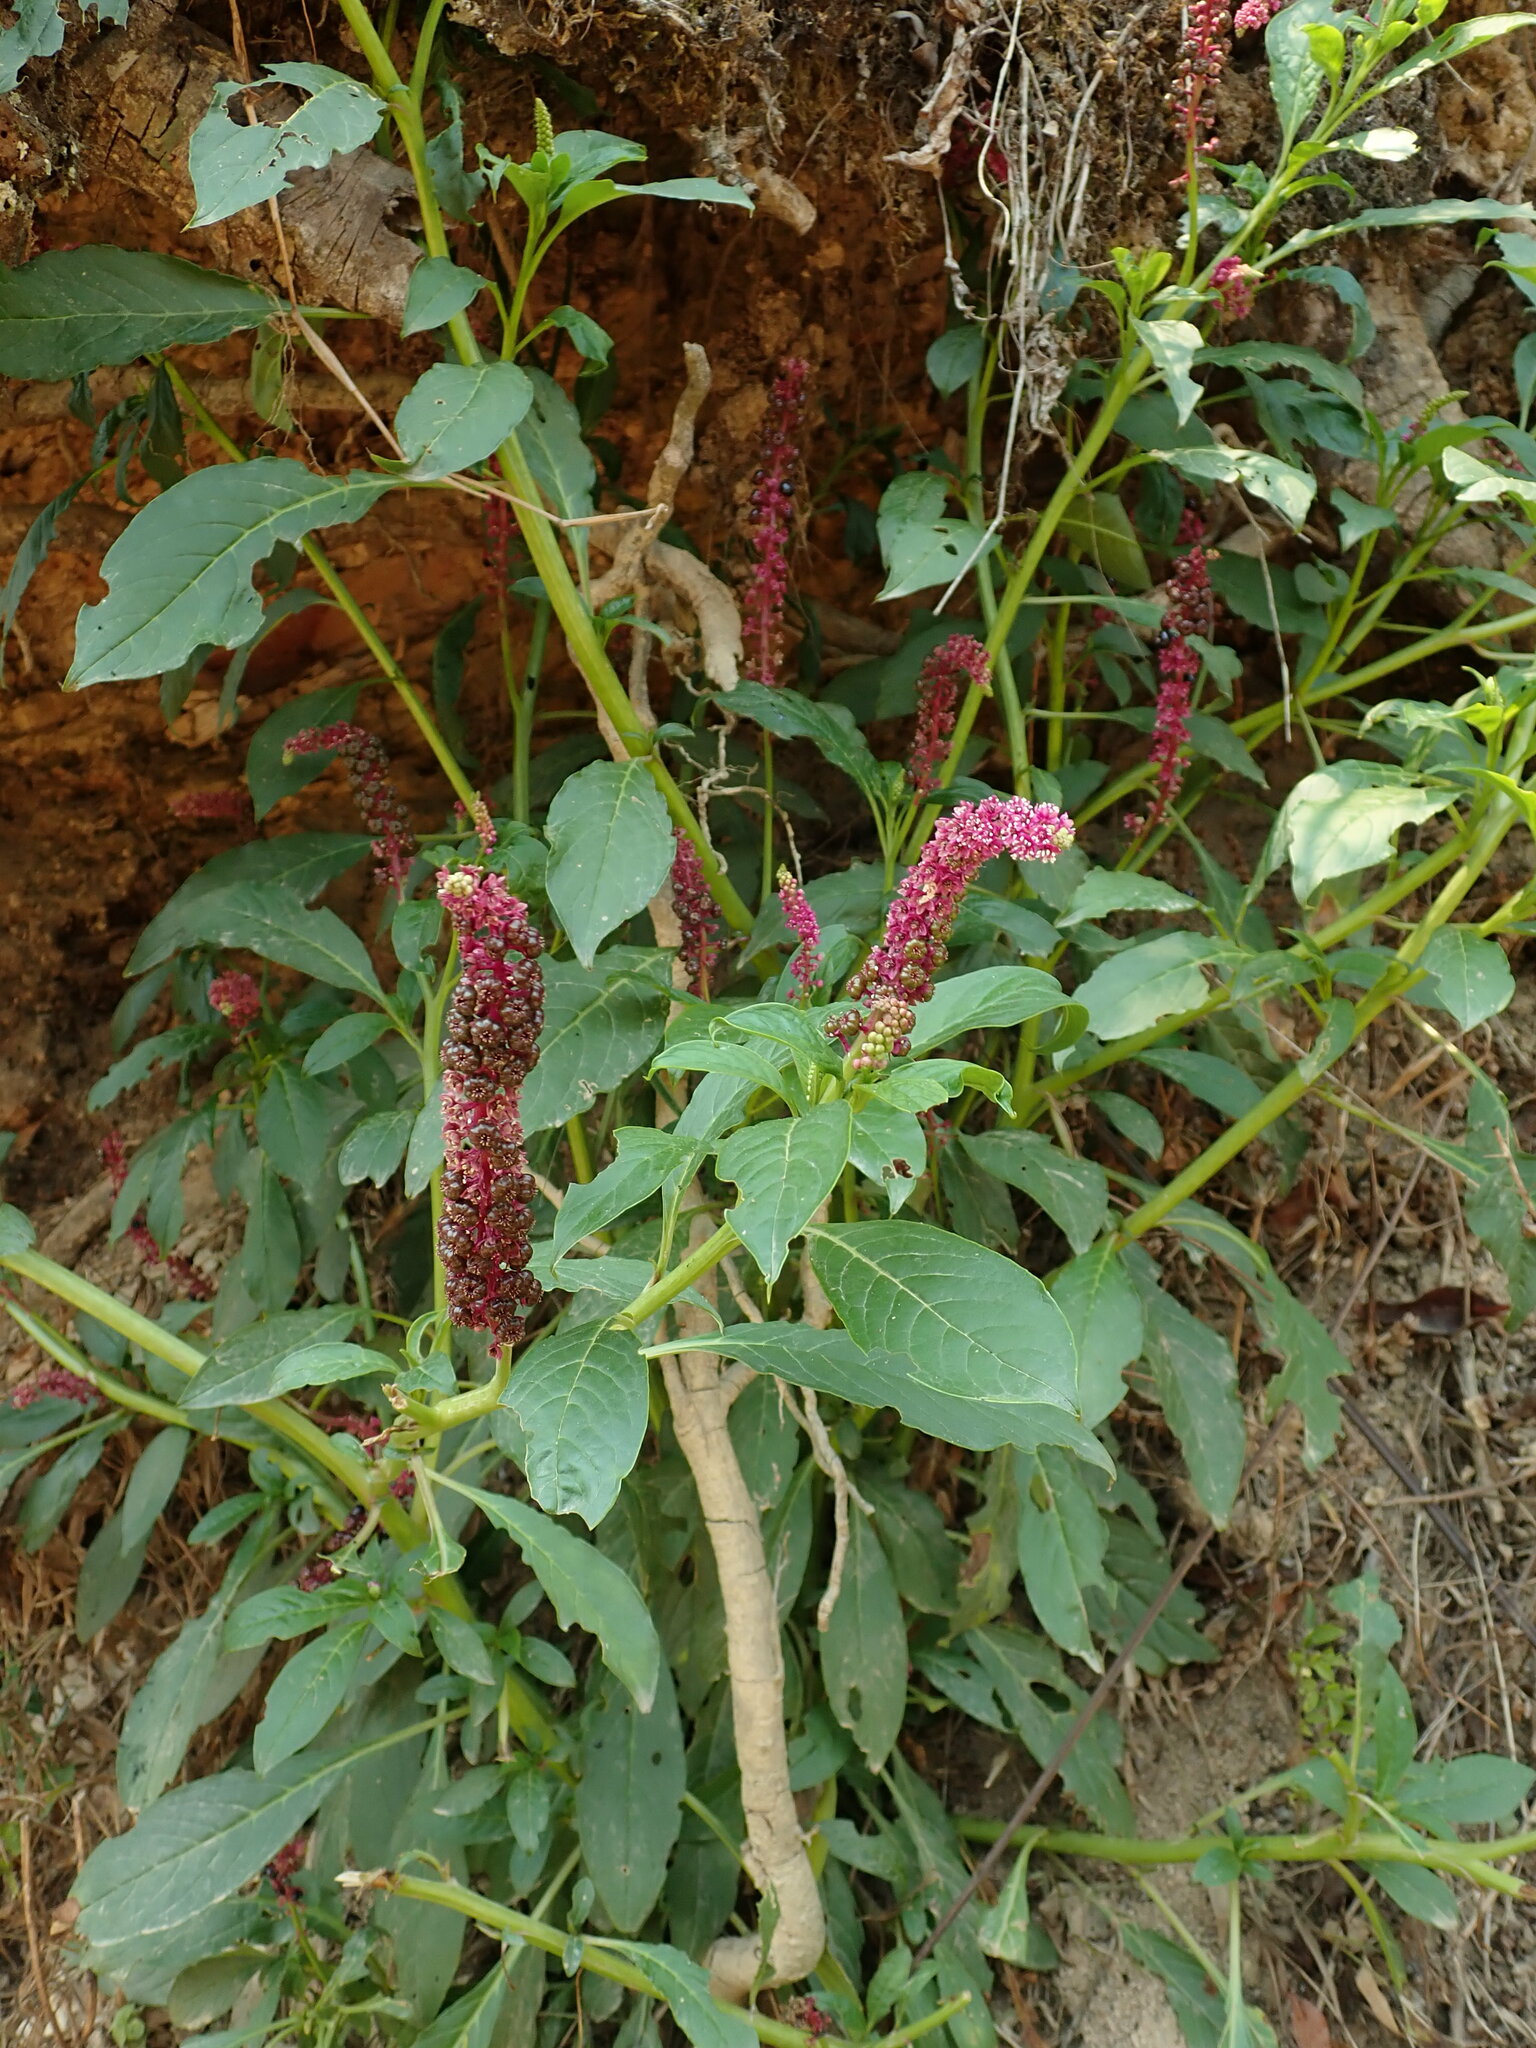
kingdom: Plantae
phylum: Tracheophyta
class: Magnoliopsida
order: Caryophyllales
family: Phytolaccaceae
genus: Phytolacca
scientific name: Phytolacca bogotensis
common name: Southern pokeweed
